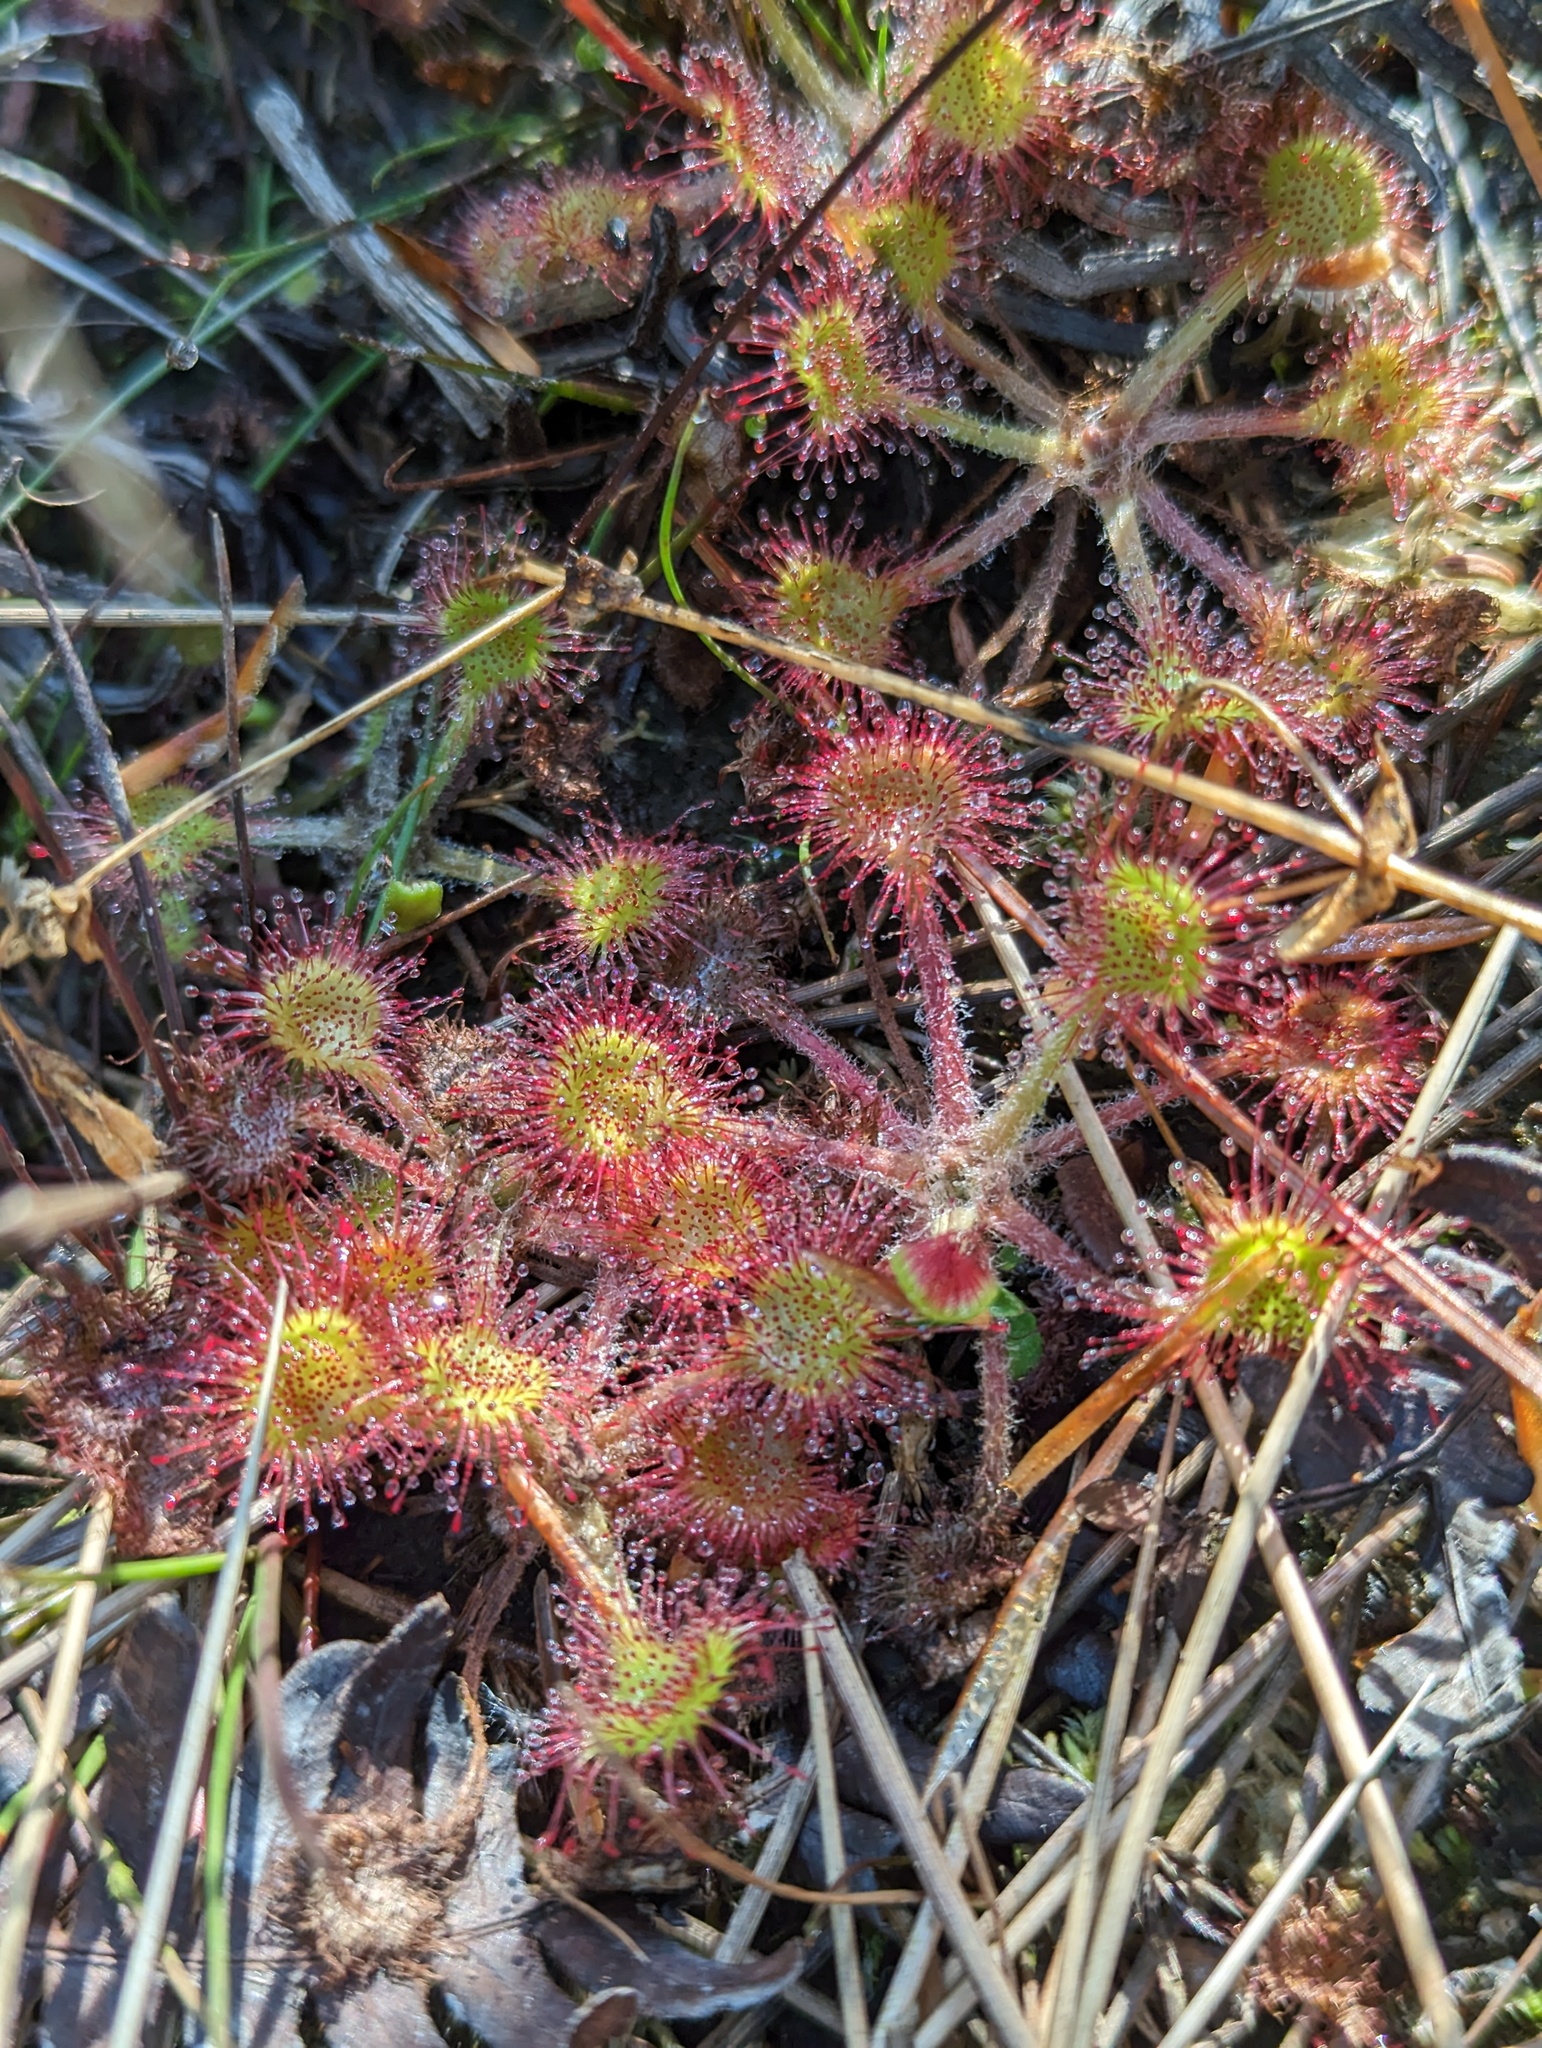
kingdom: Plantae
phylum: Tracheophyta
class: Magnoliopsida
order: Caryophyllales
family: Droseraceae
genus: Drosera
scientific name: Drosera rotundifolia
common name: Round-leaved sundew
